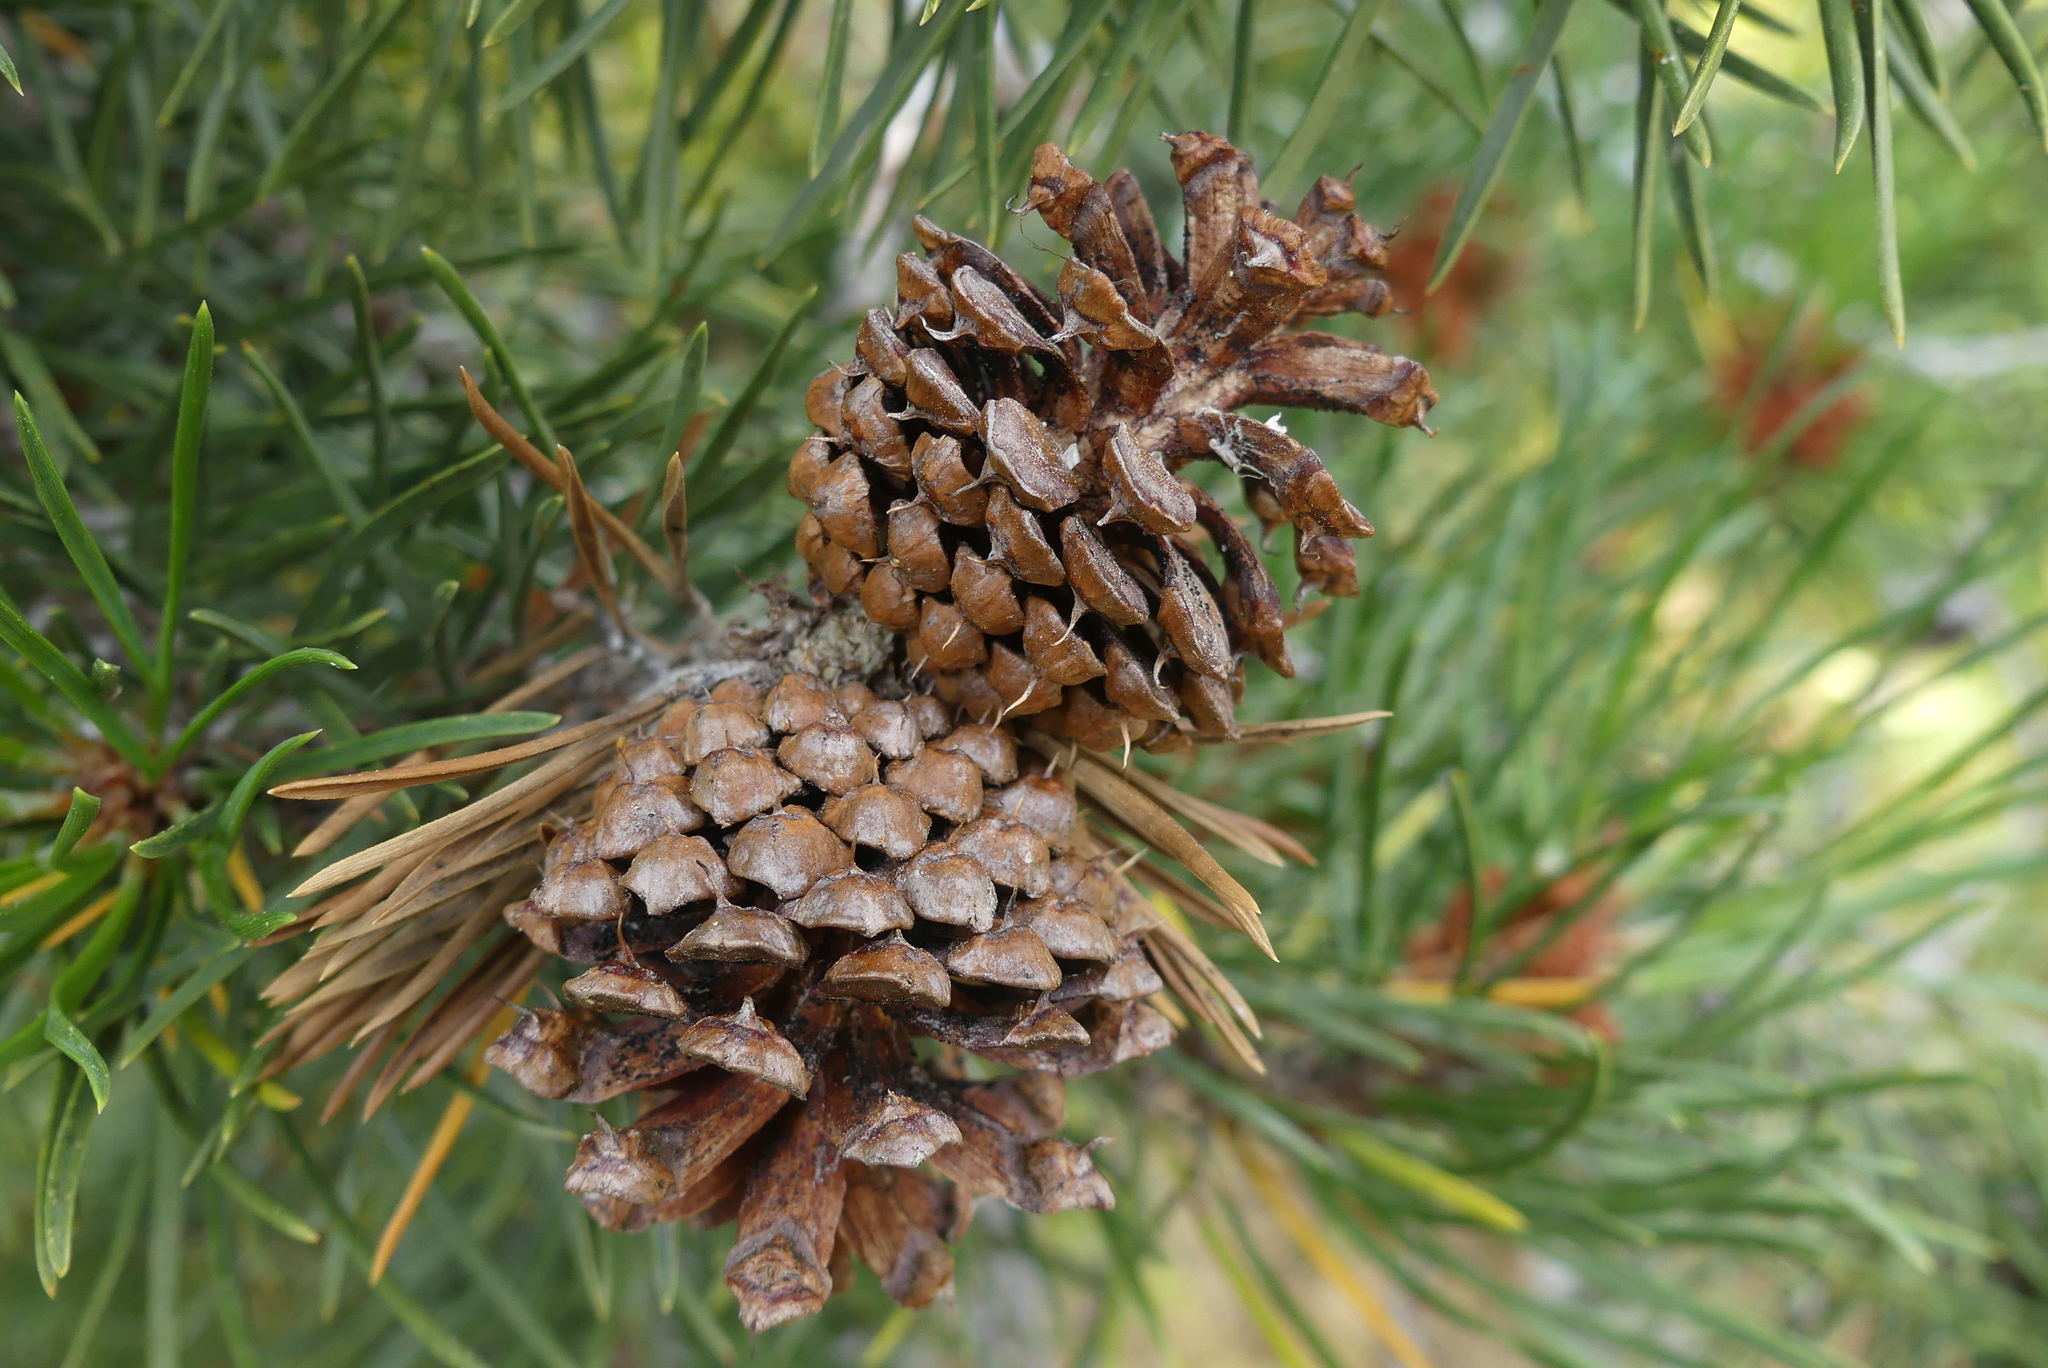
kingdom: Plantae
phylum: Tracheophyta
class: Pinopsida
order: Pinales
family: Pinaceae
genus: Pinus
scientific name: Pinus contorta
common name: Lodgepole pine
